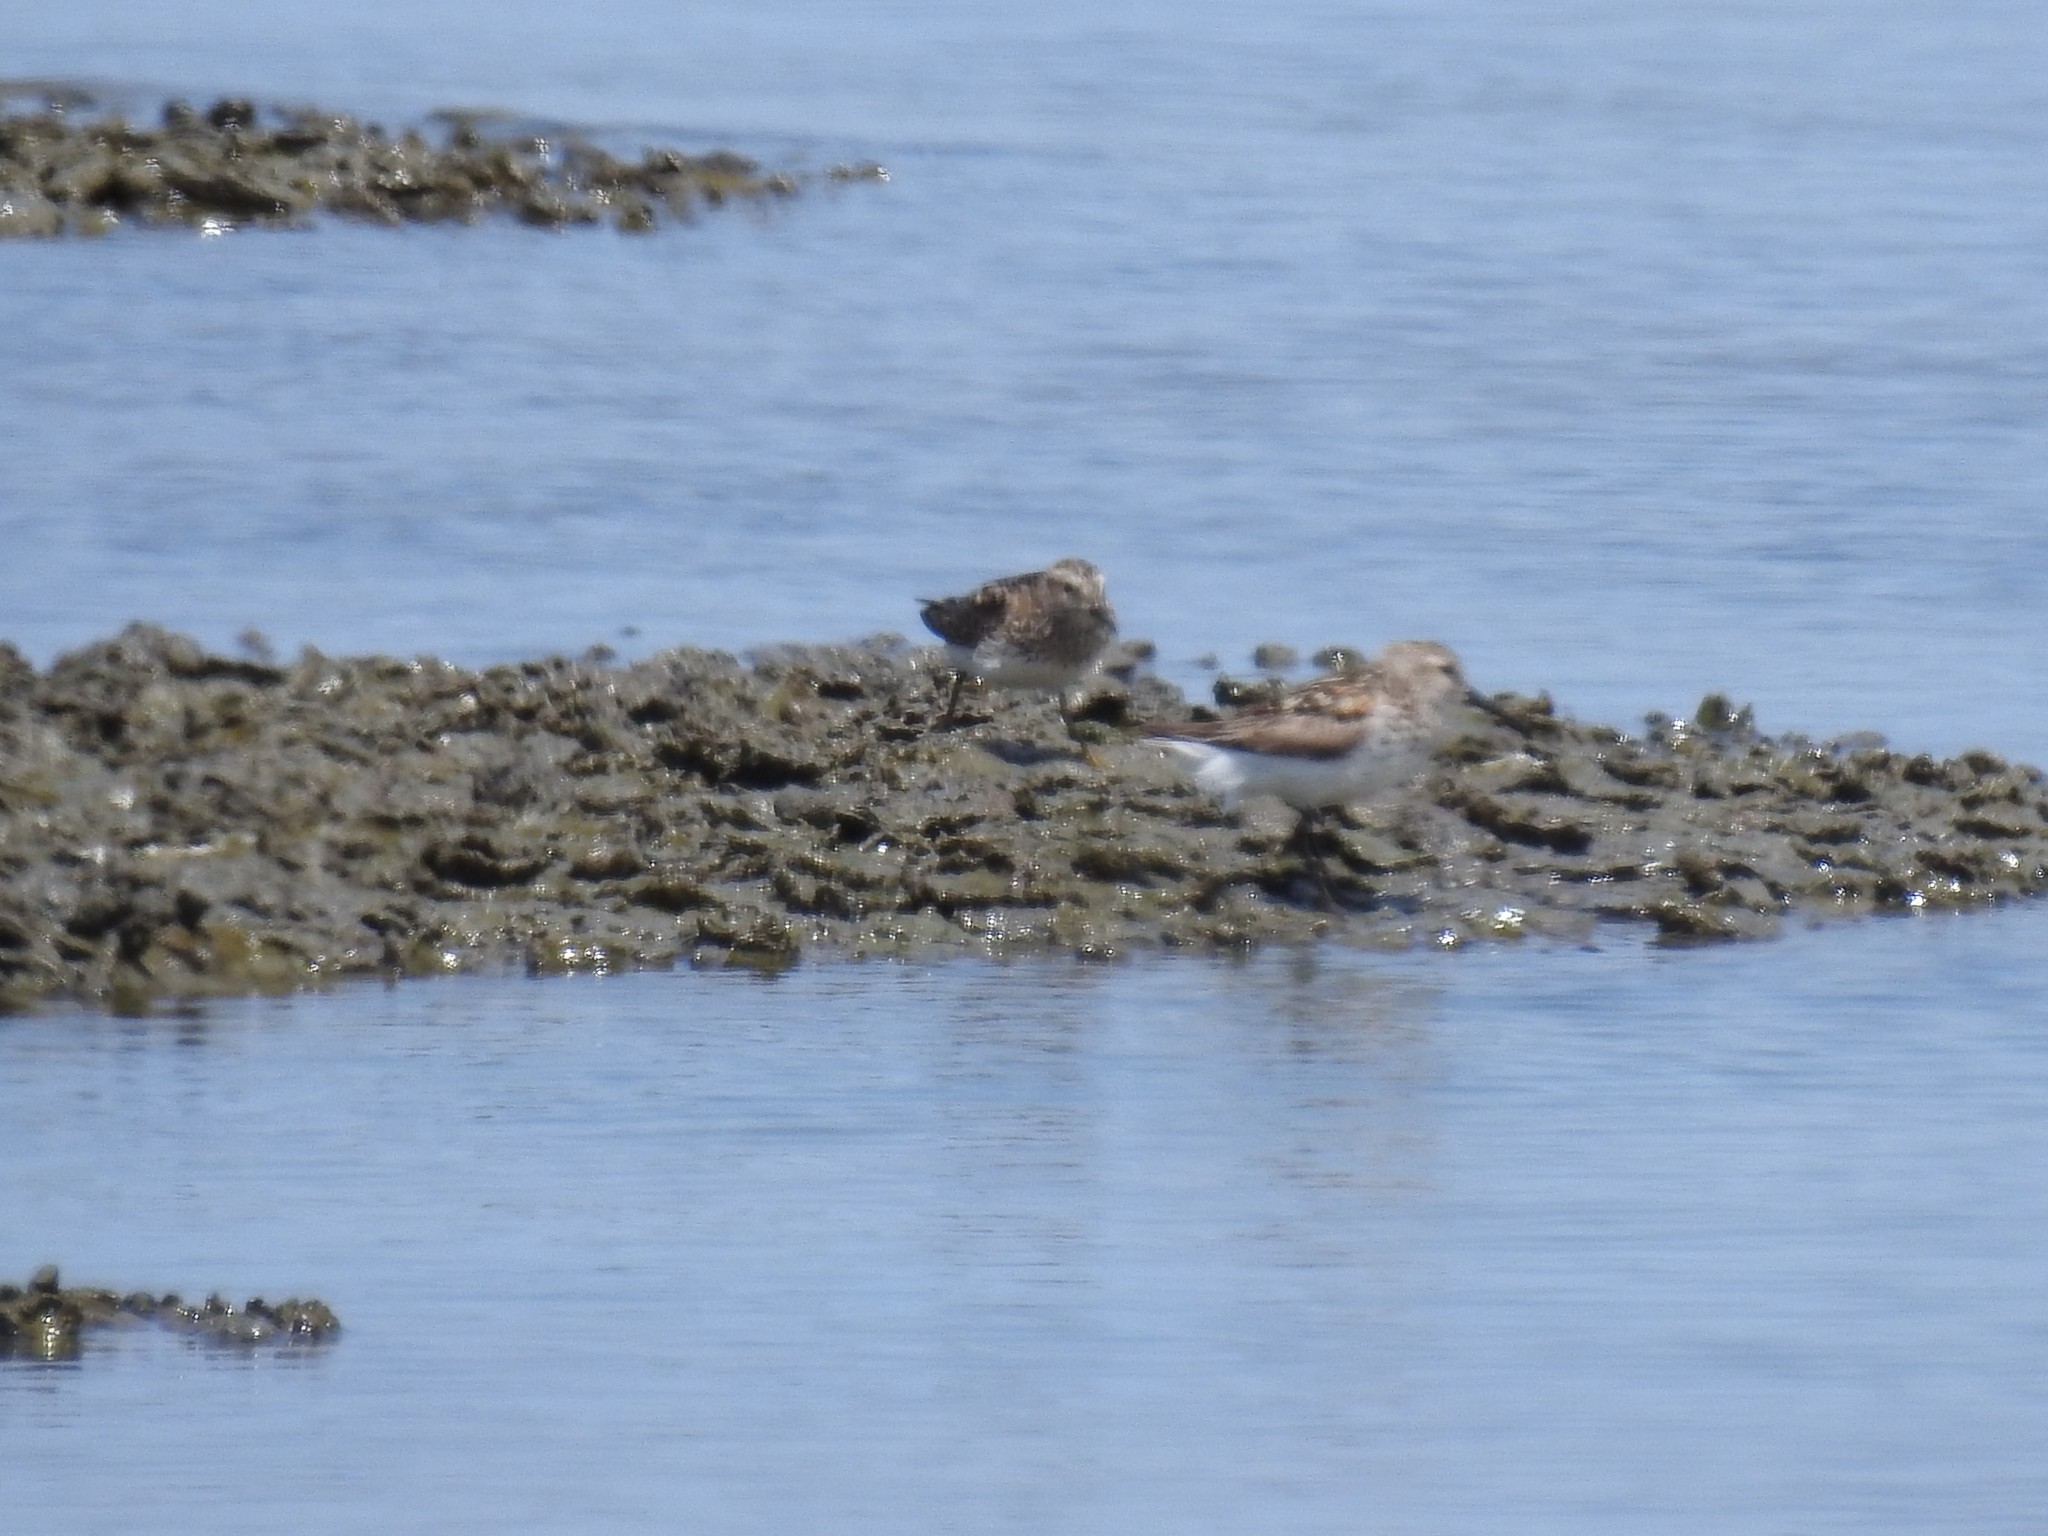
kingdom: Animalia
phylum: Chordata
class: Aves
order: Charadriiformes
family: Scolopacidae
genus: Calidris
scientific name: Calidris minutilla
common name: Least sandpiper
